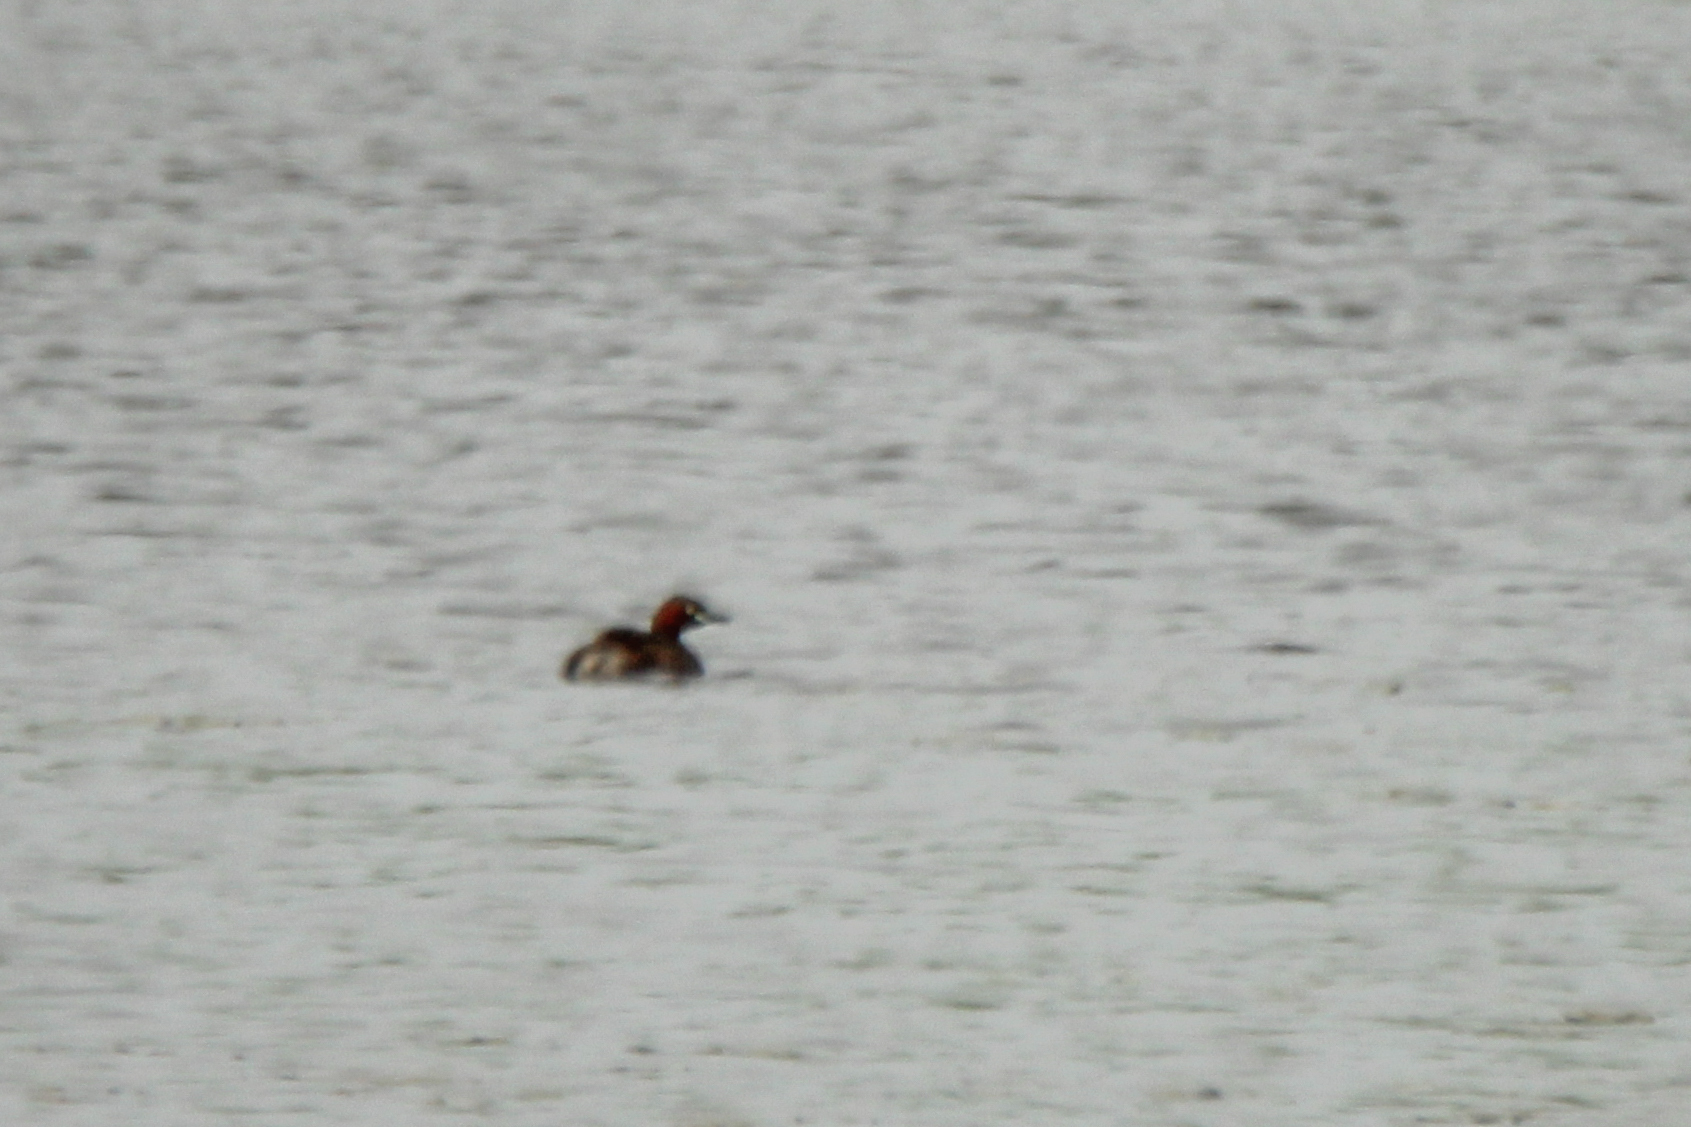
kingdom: Animalia
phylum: Chordata
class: Aves
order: Podicipediformes
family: Podicipedidae
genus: Tachybaptus
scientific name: Tachybaptus ruficollis
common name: Little grebe
